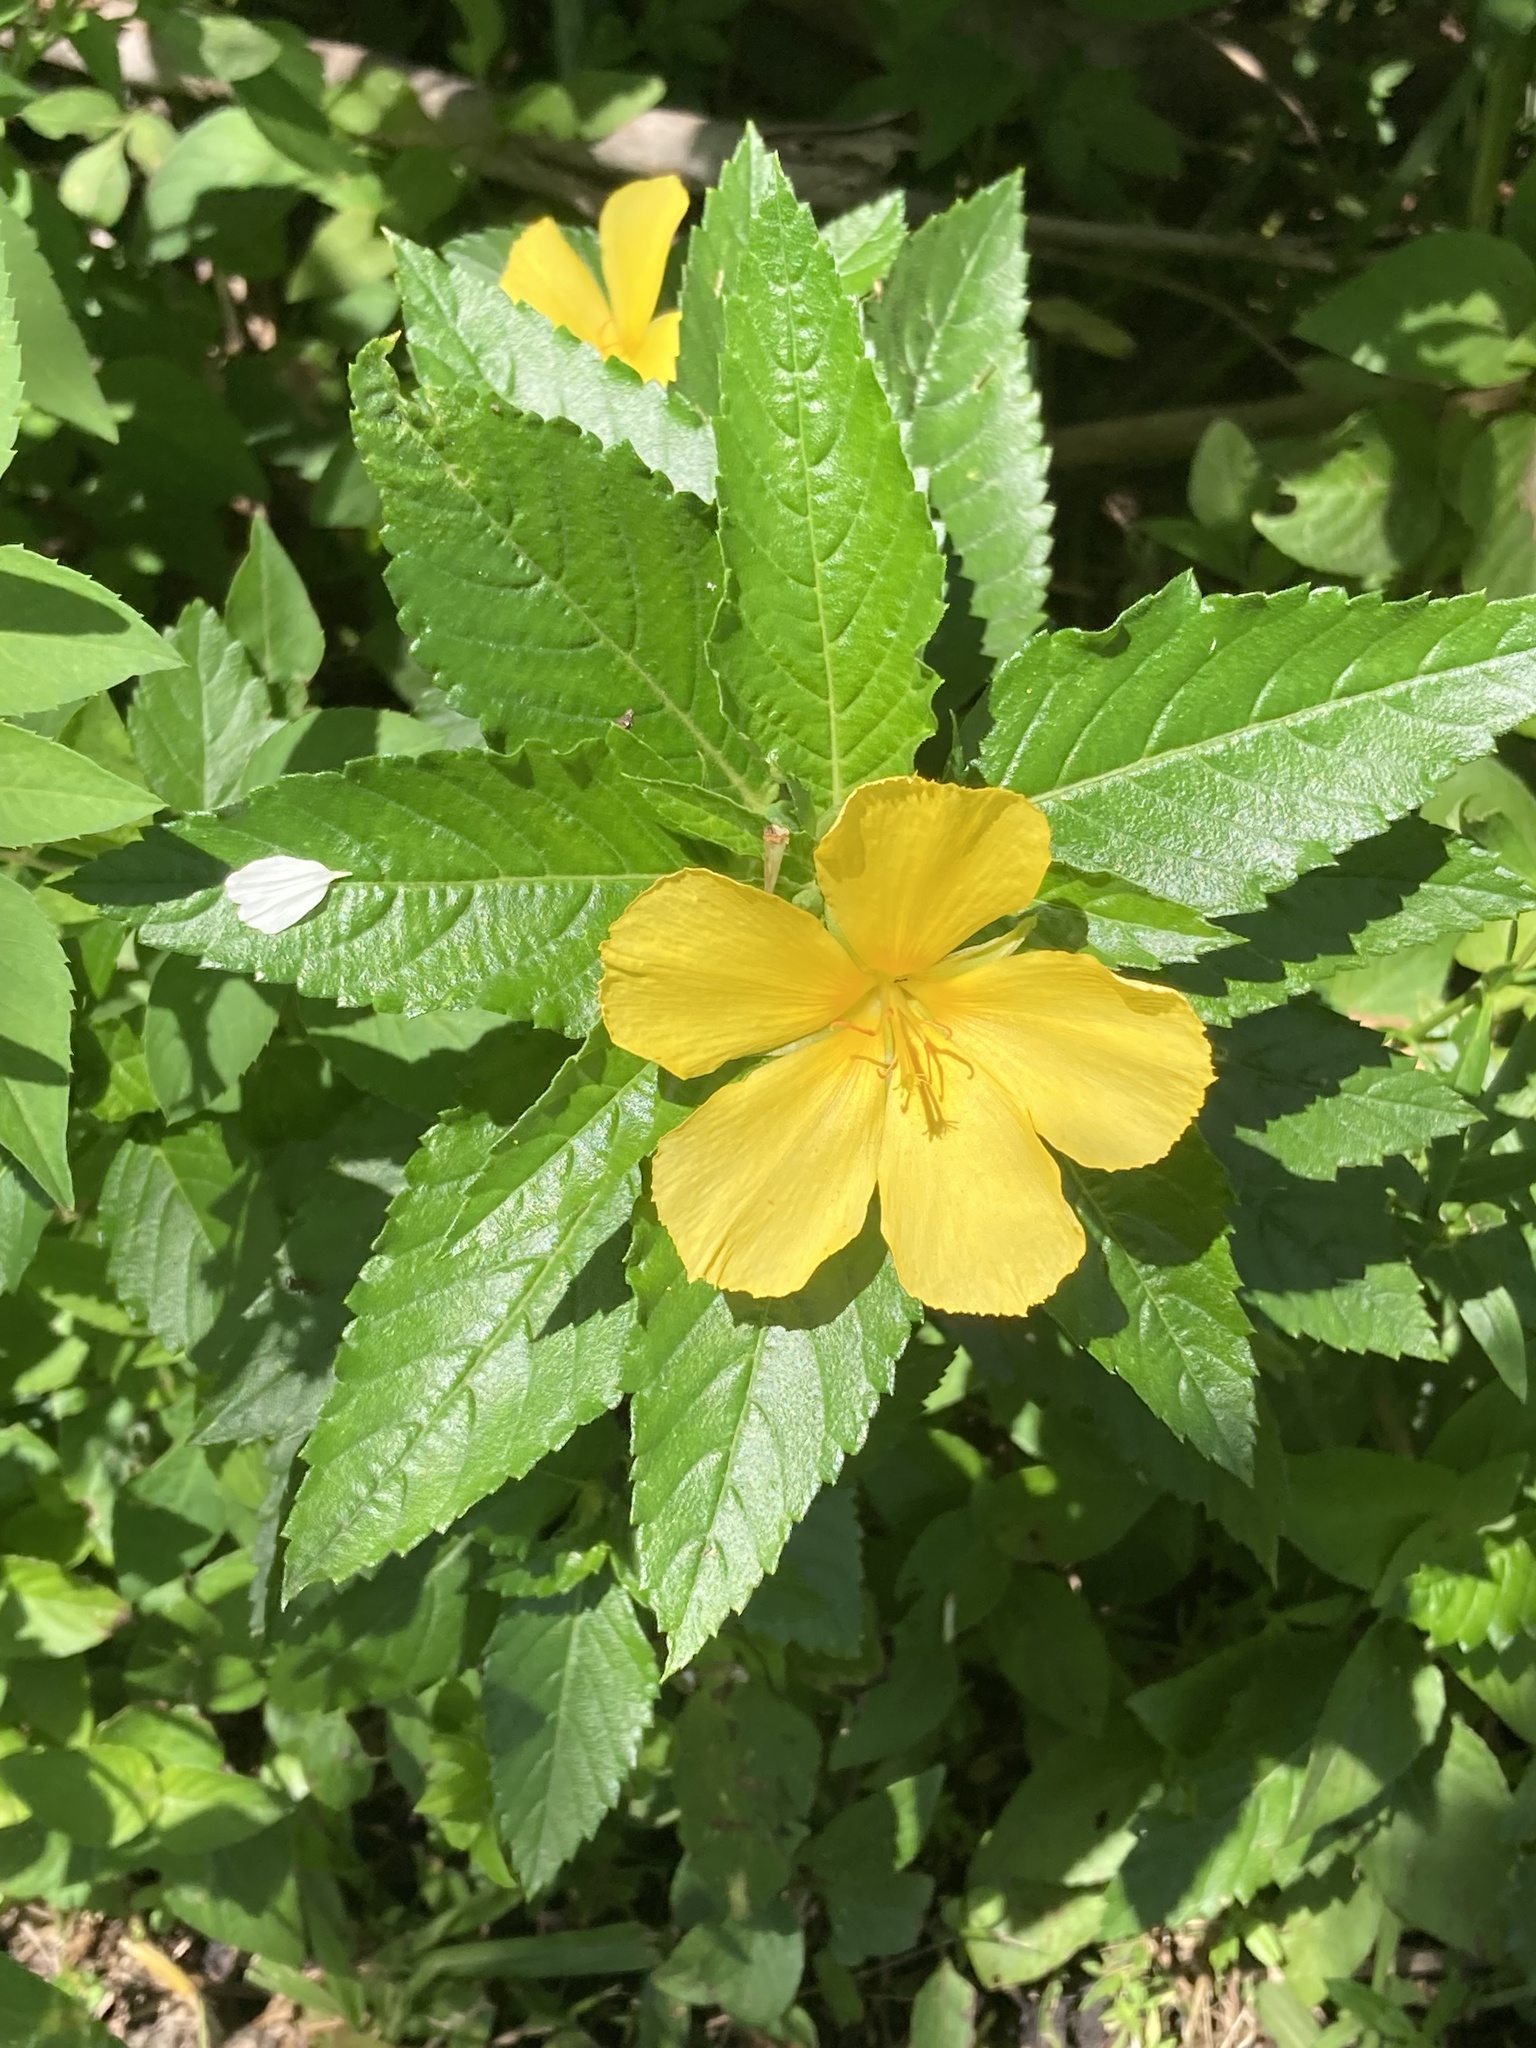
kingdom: Plantae
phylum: Tracheophyta
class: Magnoliopsida
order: Malpighiales
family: Turneraceae
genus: Turnera
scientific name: Turnera ulmifolia
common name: Ramgoat dashalong
